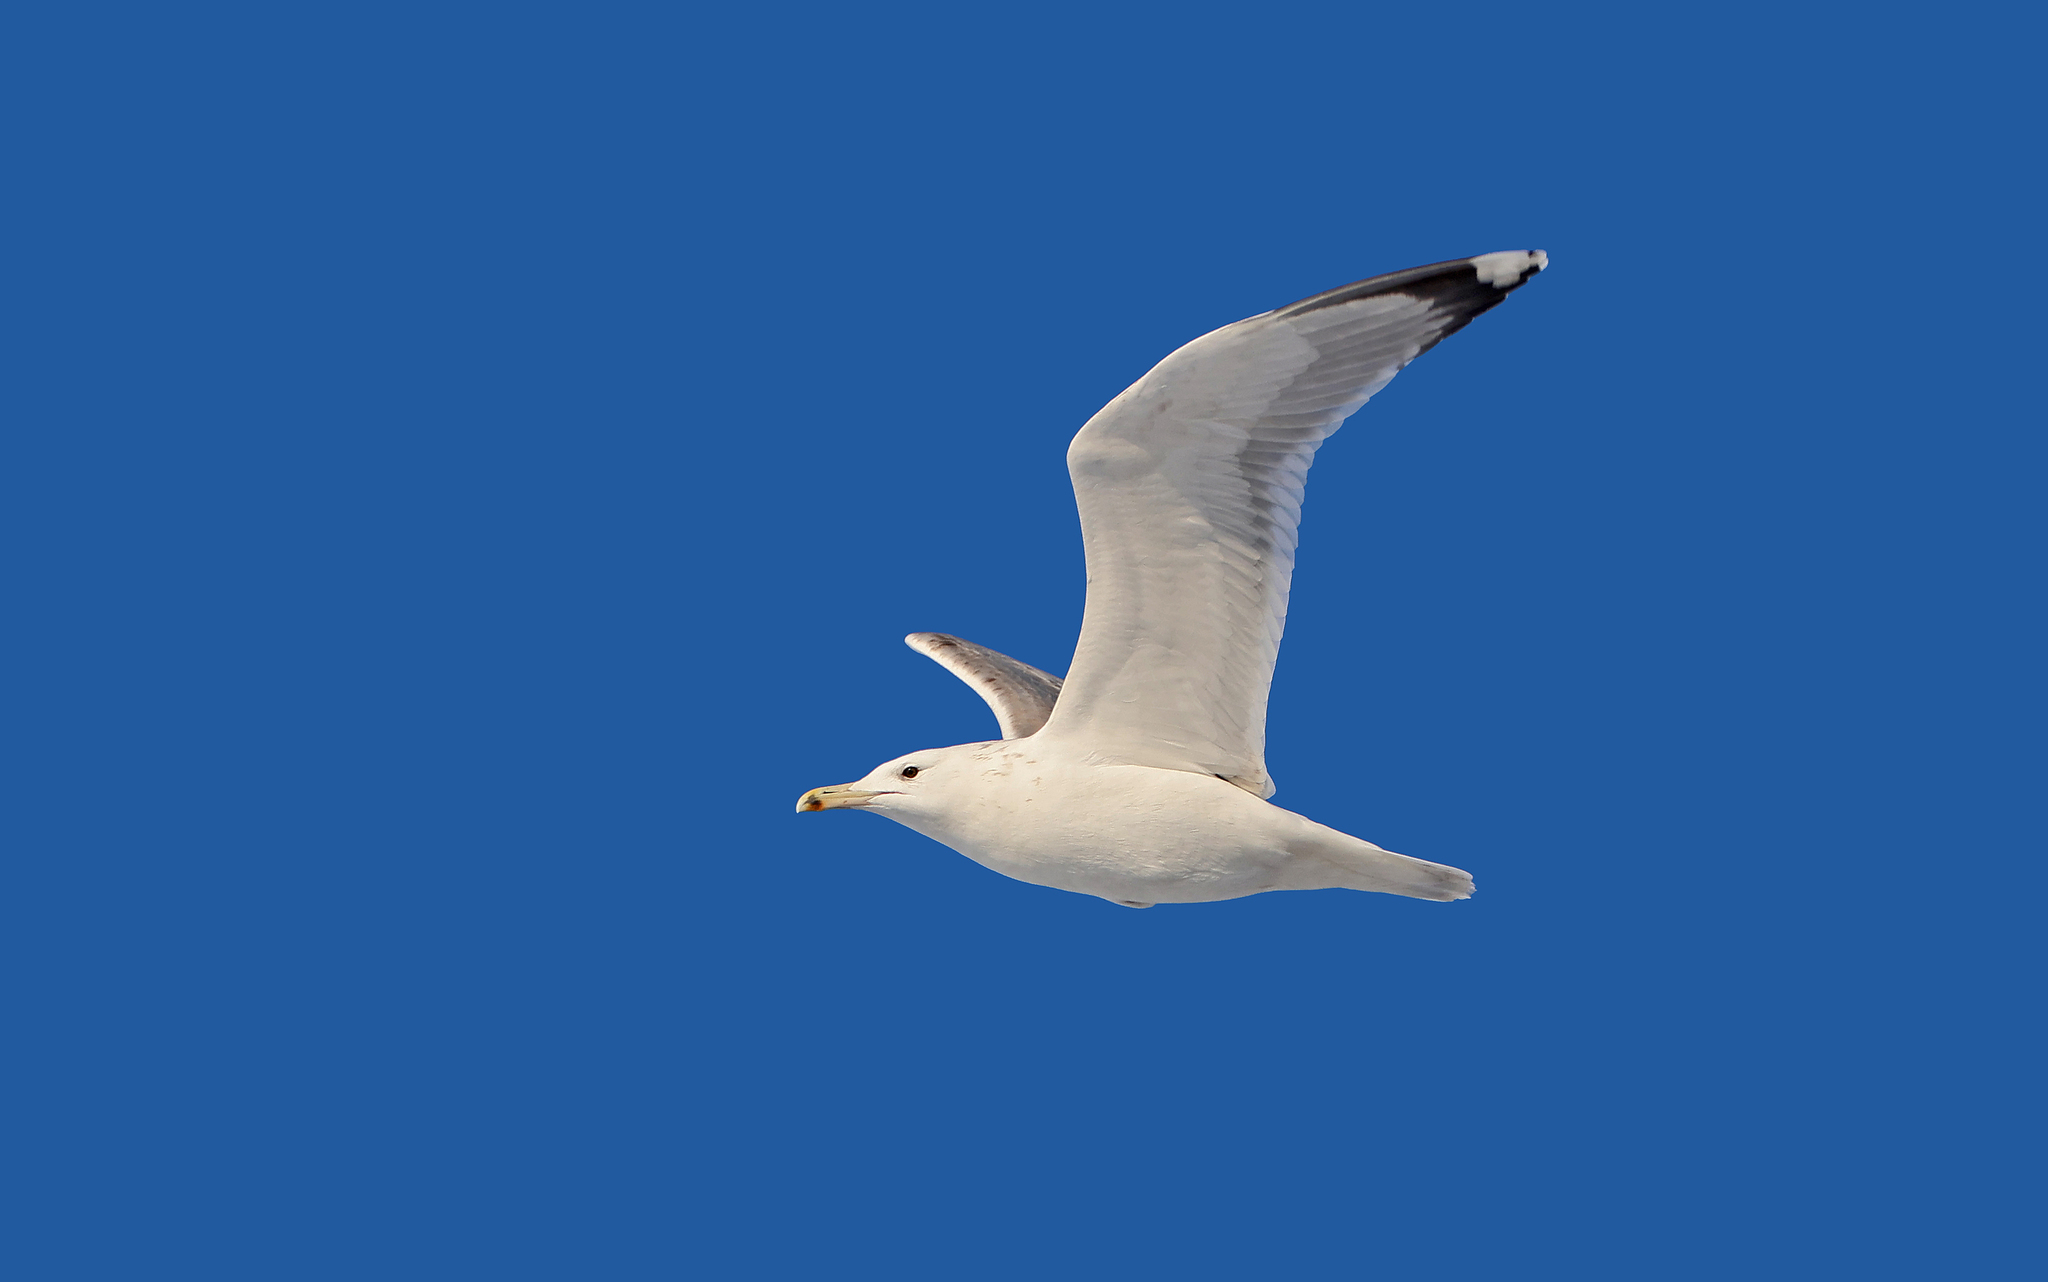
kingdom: Animalia
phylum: Chordata
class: Aves
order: Charadriiformes
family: Laridae
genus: Larus
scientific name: Larus cachinnans
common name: Caspian gull
